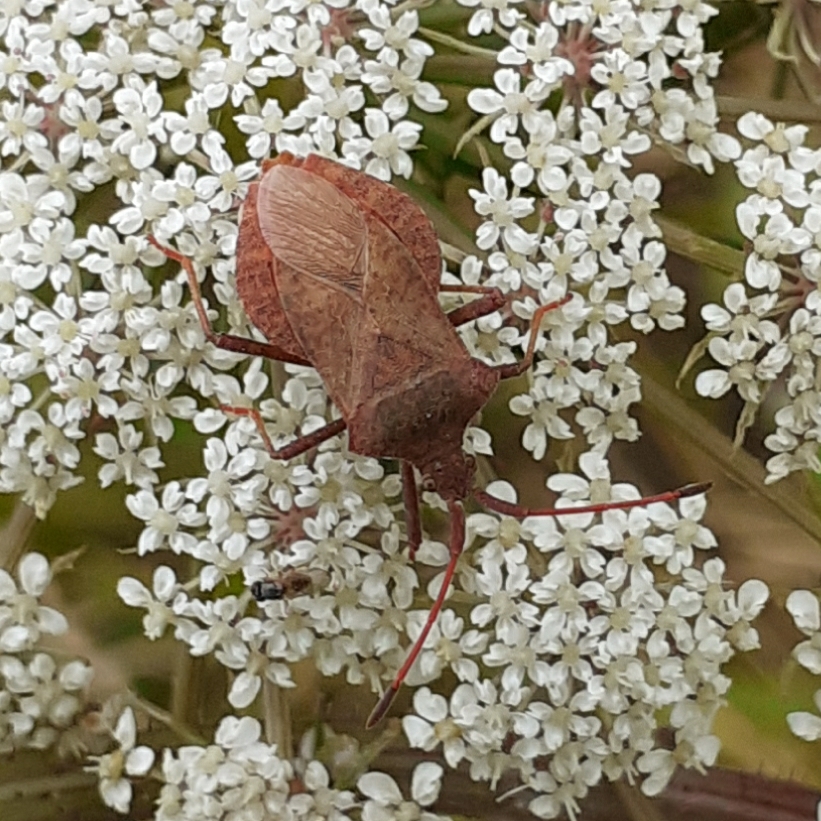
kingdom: Animalia
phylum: Arthropoda
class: Insecta
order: Hemiptera
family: Coreidae
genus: Coreus
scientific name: Coreus marginatus
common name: Dock bug
